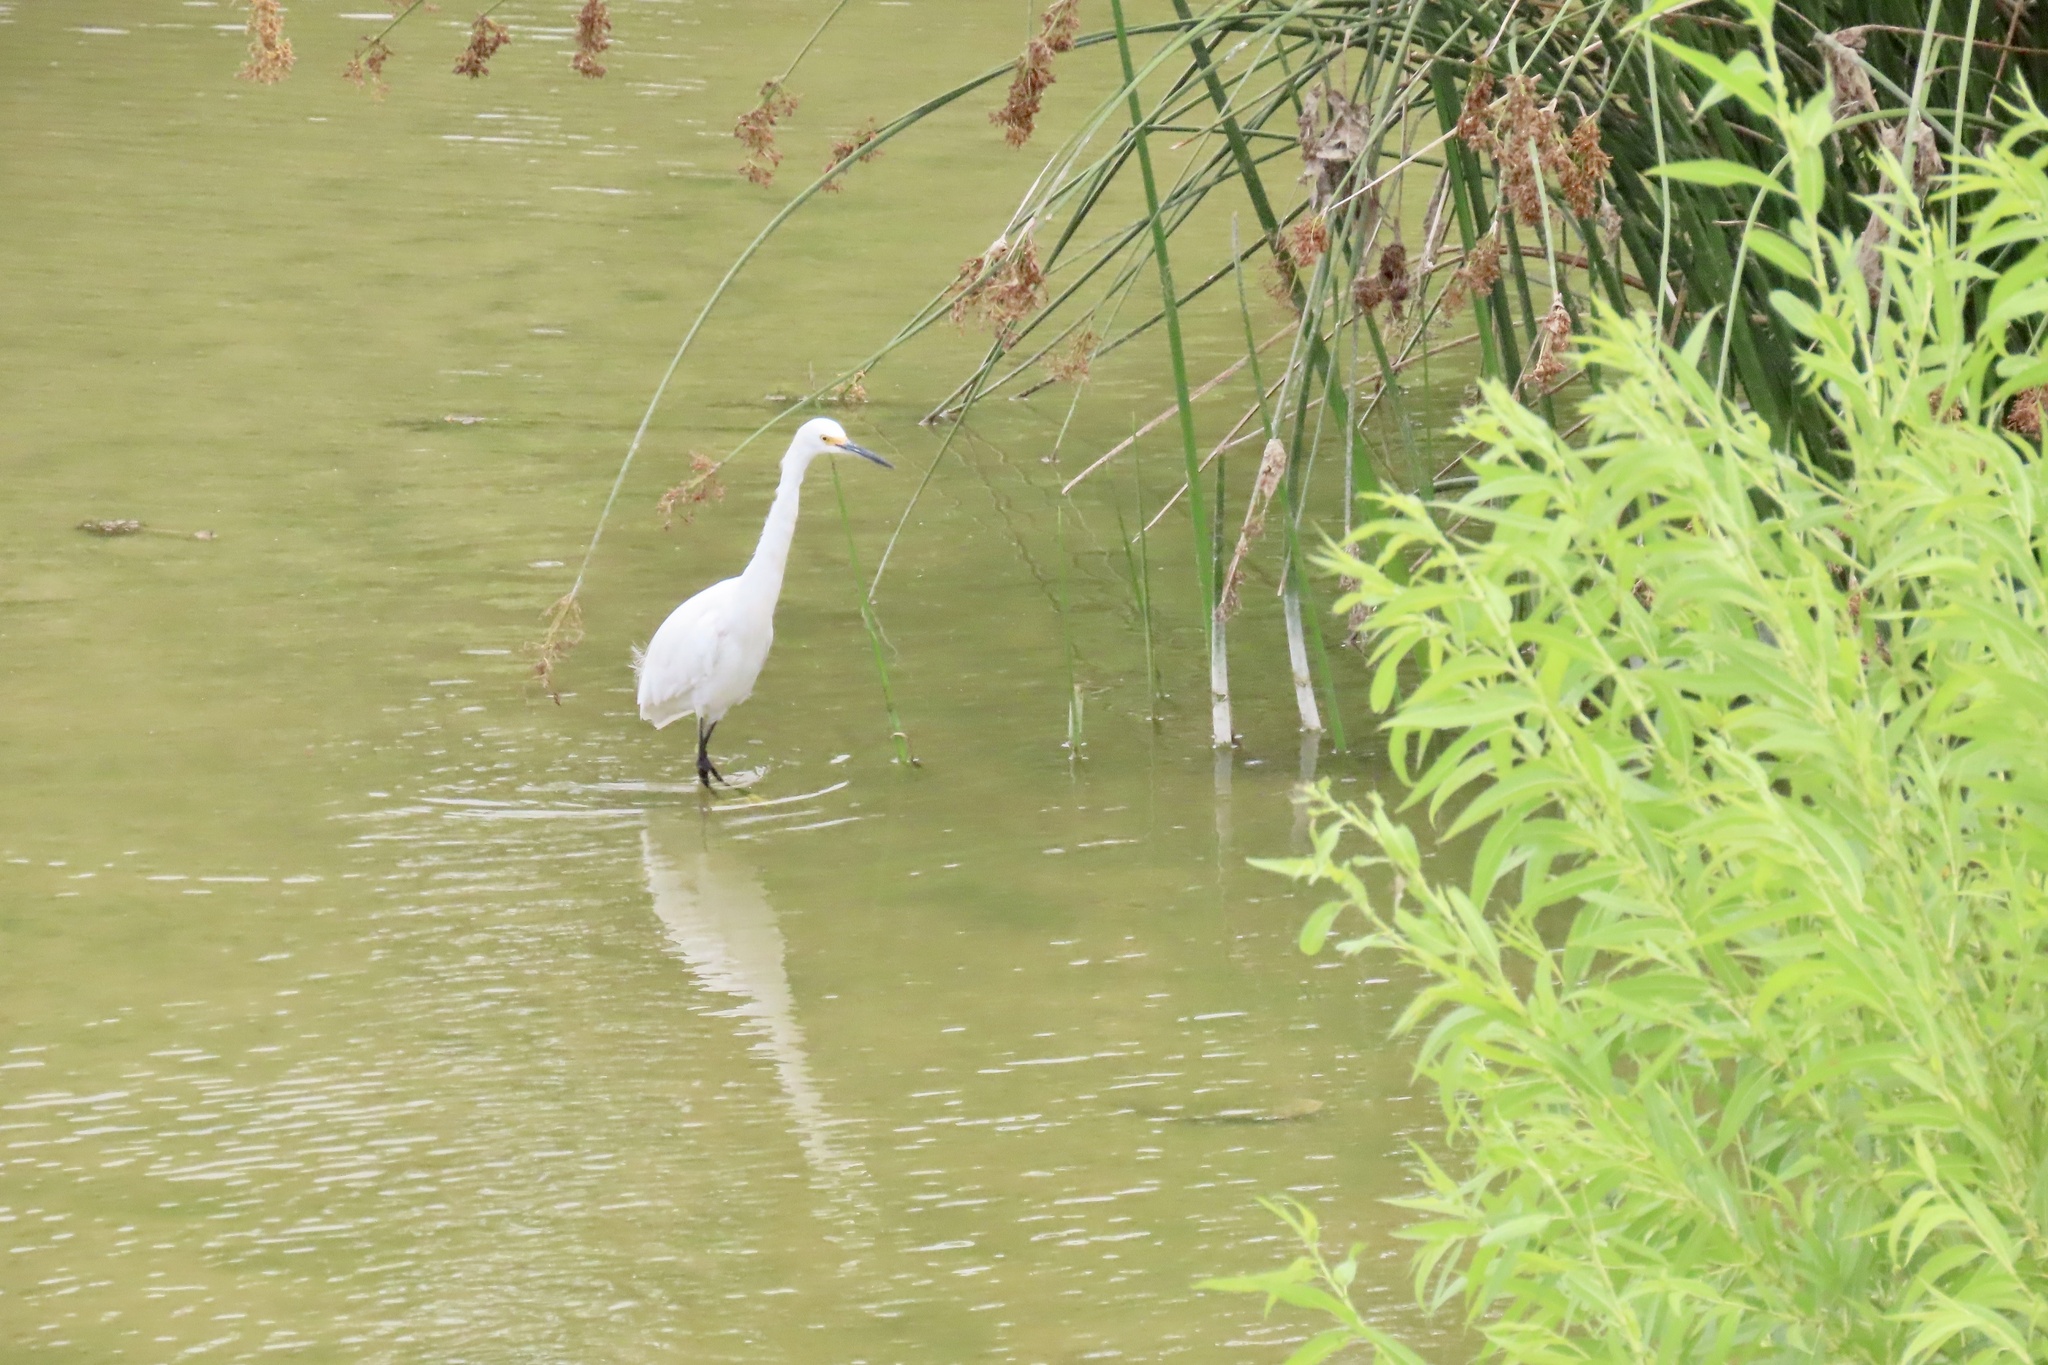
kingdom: Animalia
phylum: Chordata
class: Aves
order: Pelecaniformes
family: Ardeidae
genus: Egretta
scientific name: Egretta thula
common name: Snowy egret
